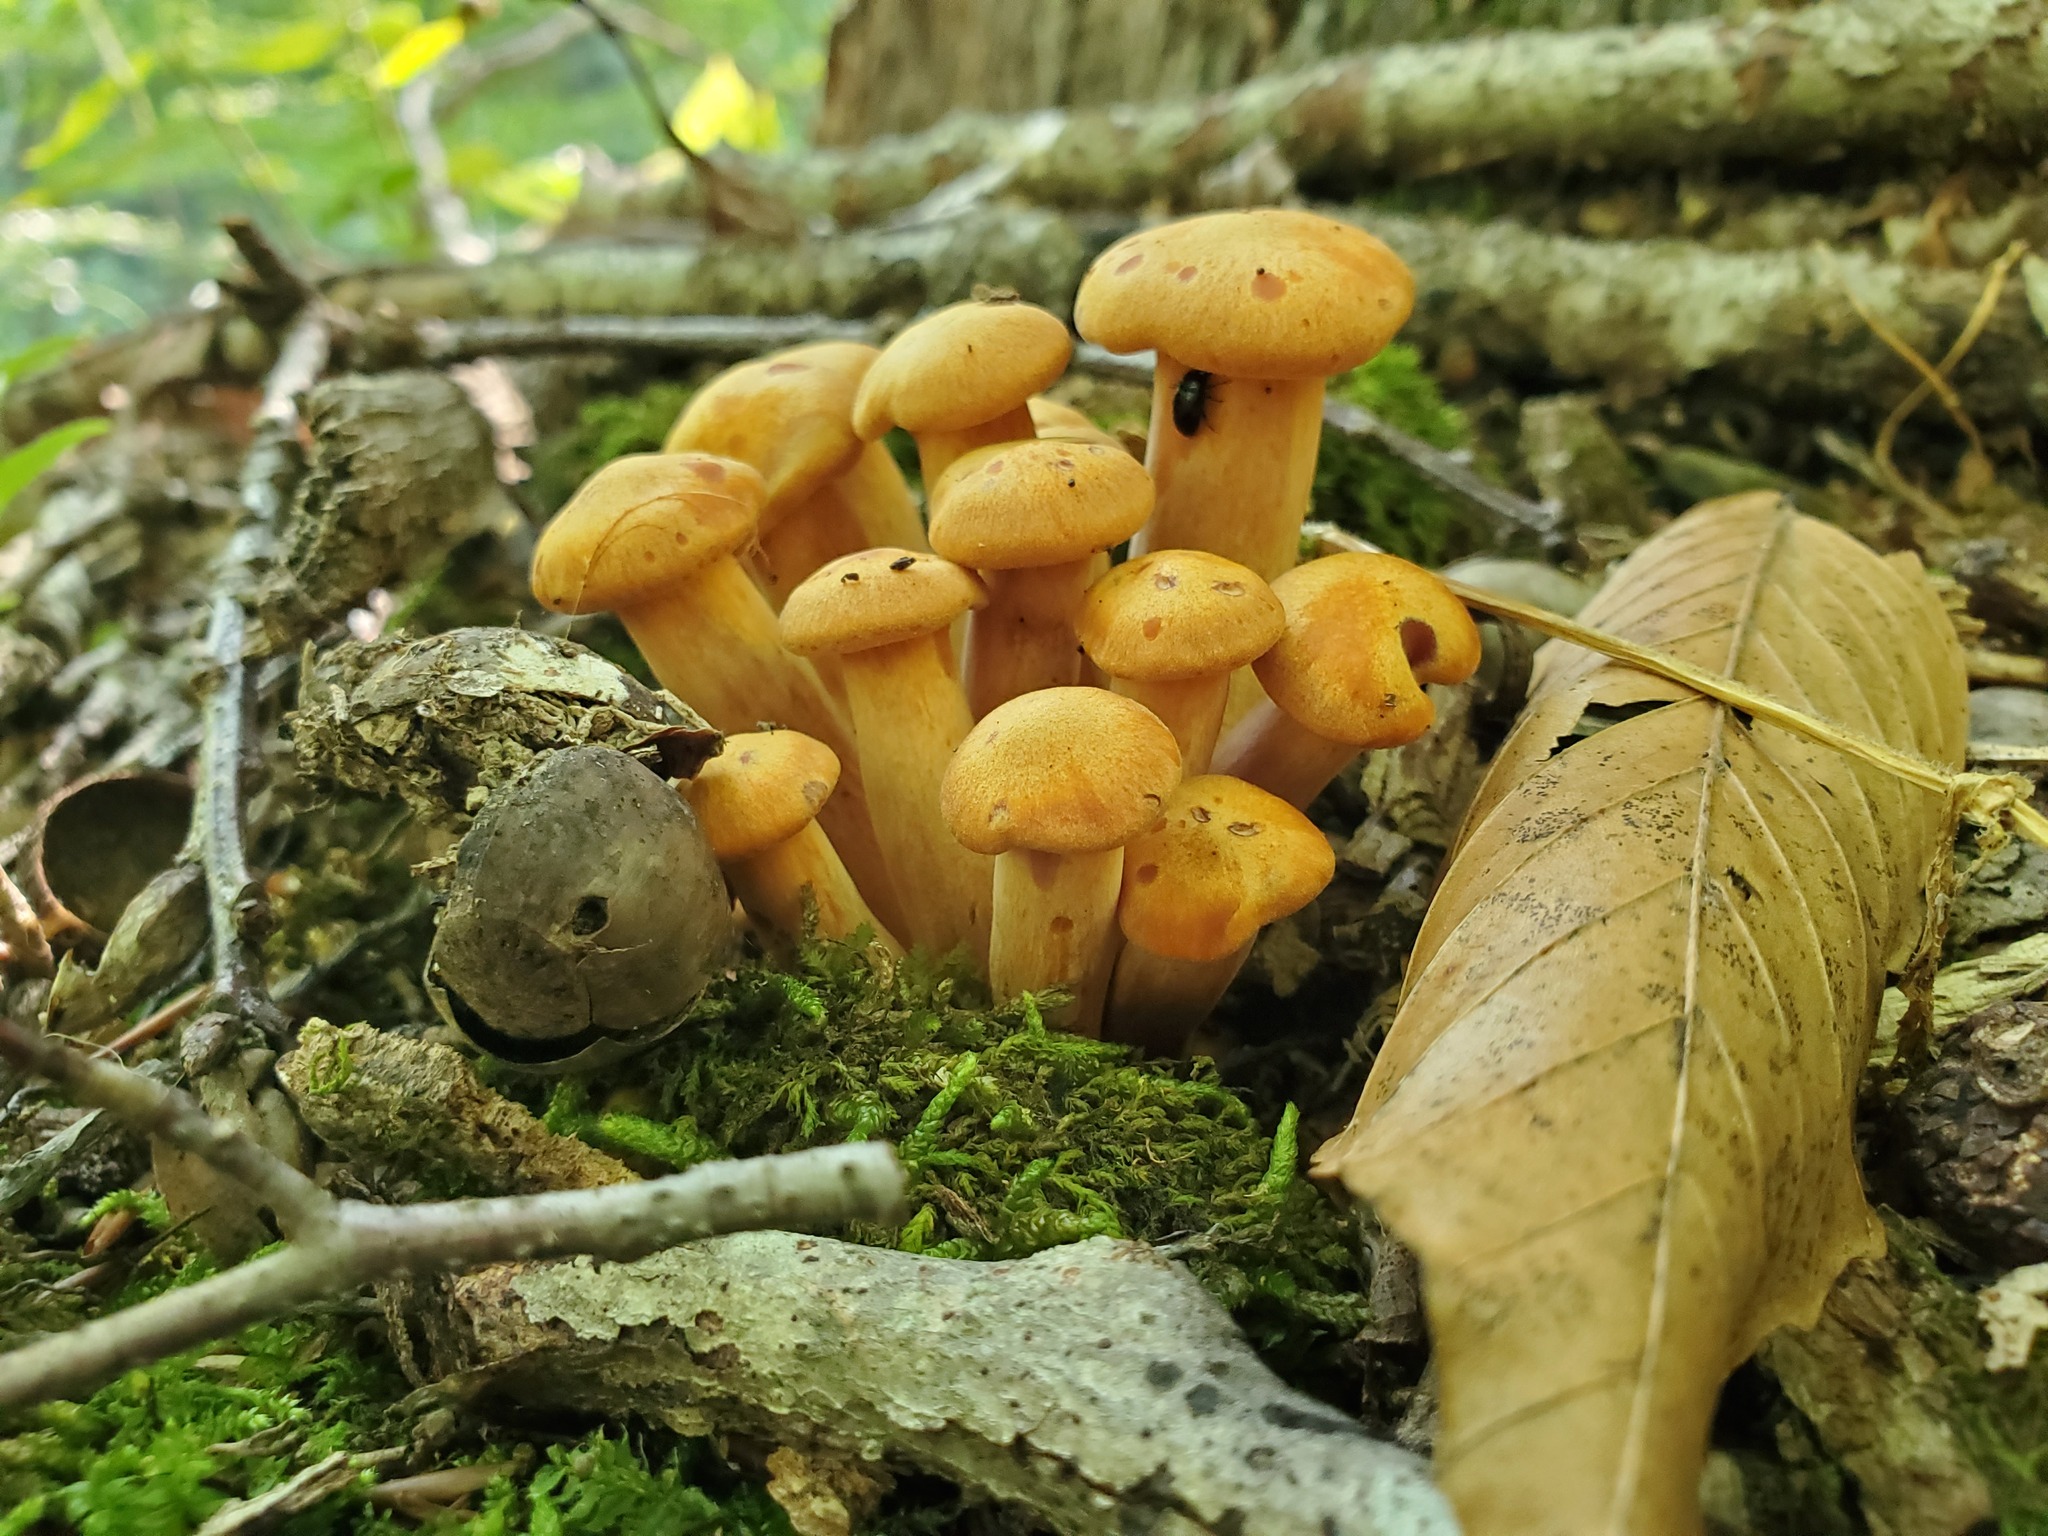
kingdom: Fungi
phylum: Basidiomycota
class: Agaricomycetes
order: Agaricales
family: Omphalotaceae
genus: Omphalotus
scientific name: Omphalotus illudens
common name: Jack o lantern
